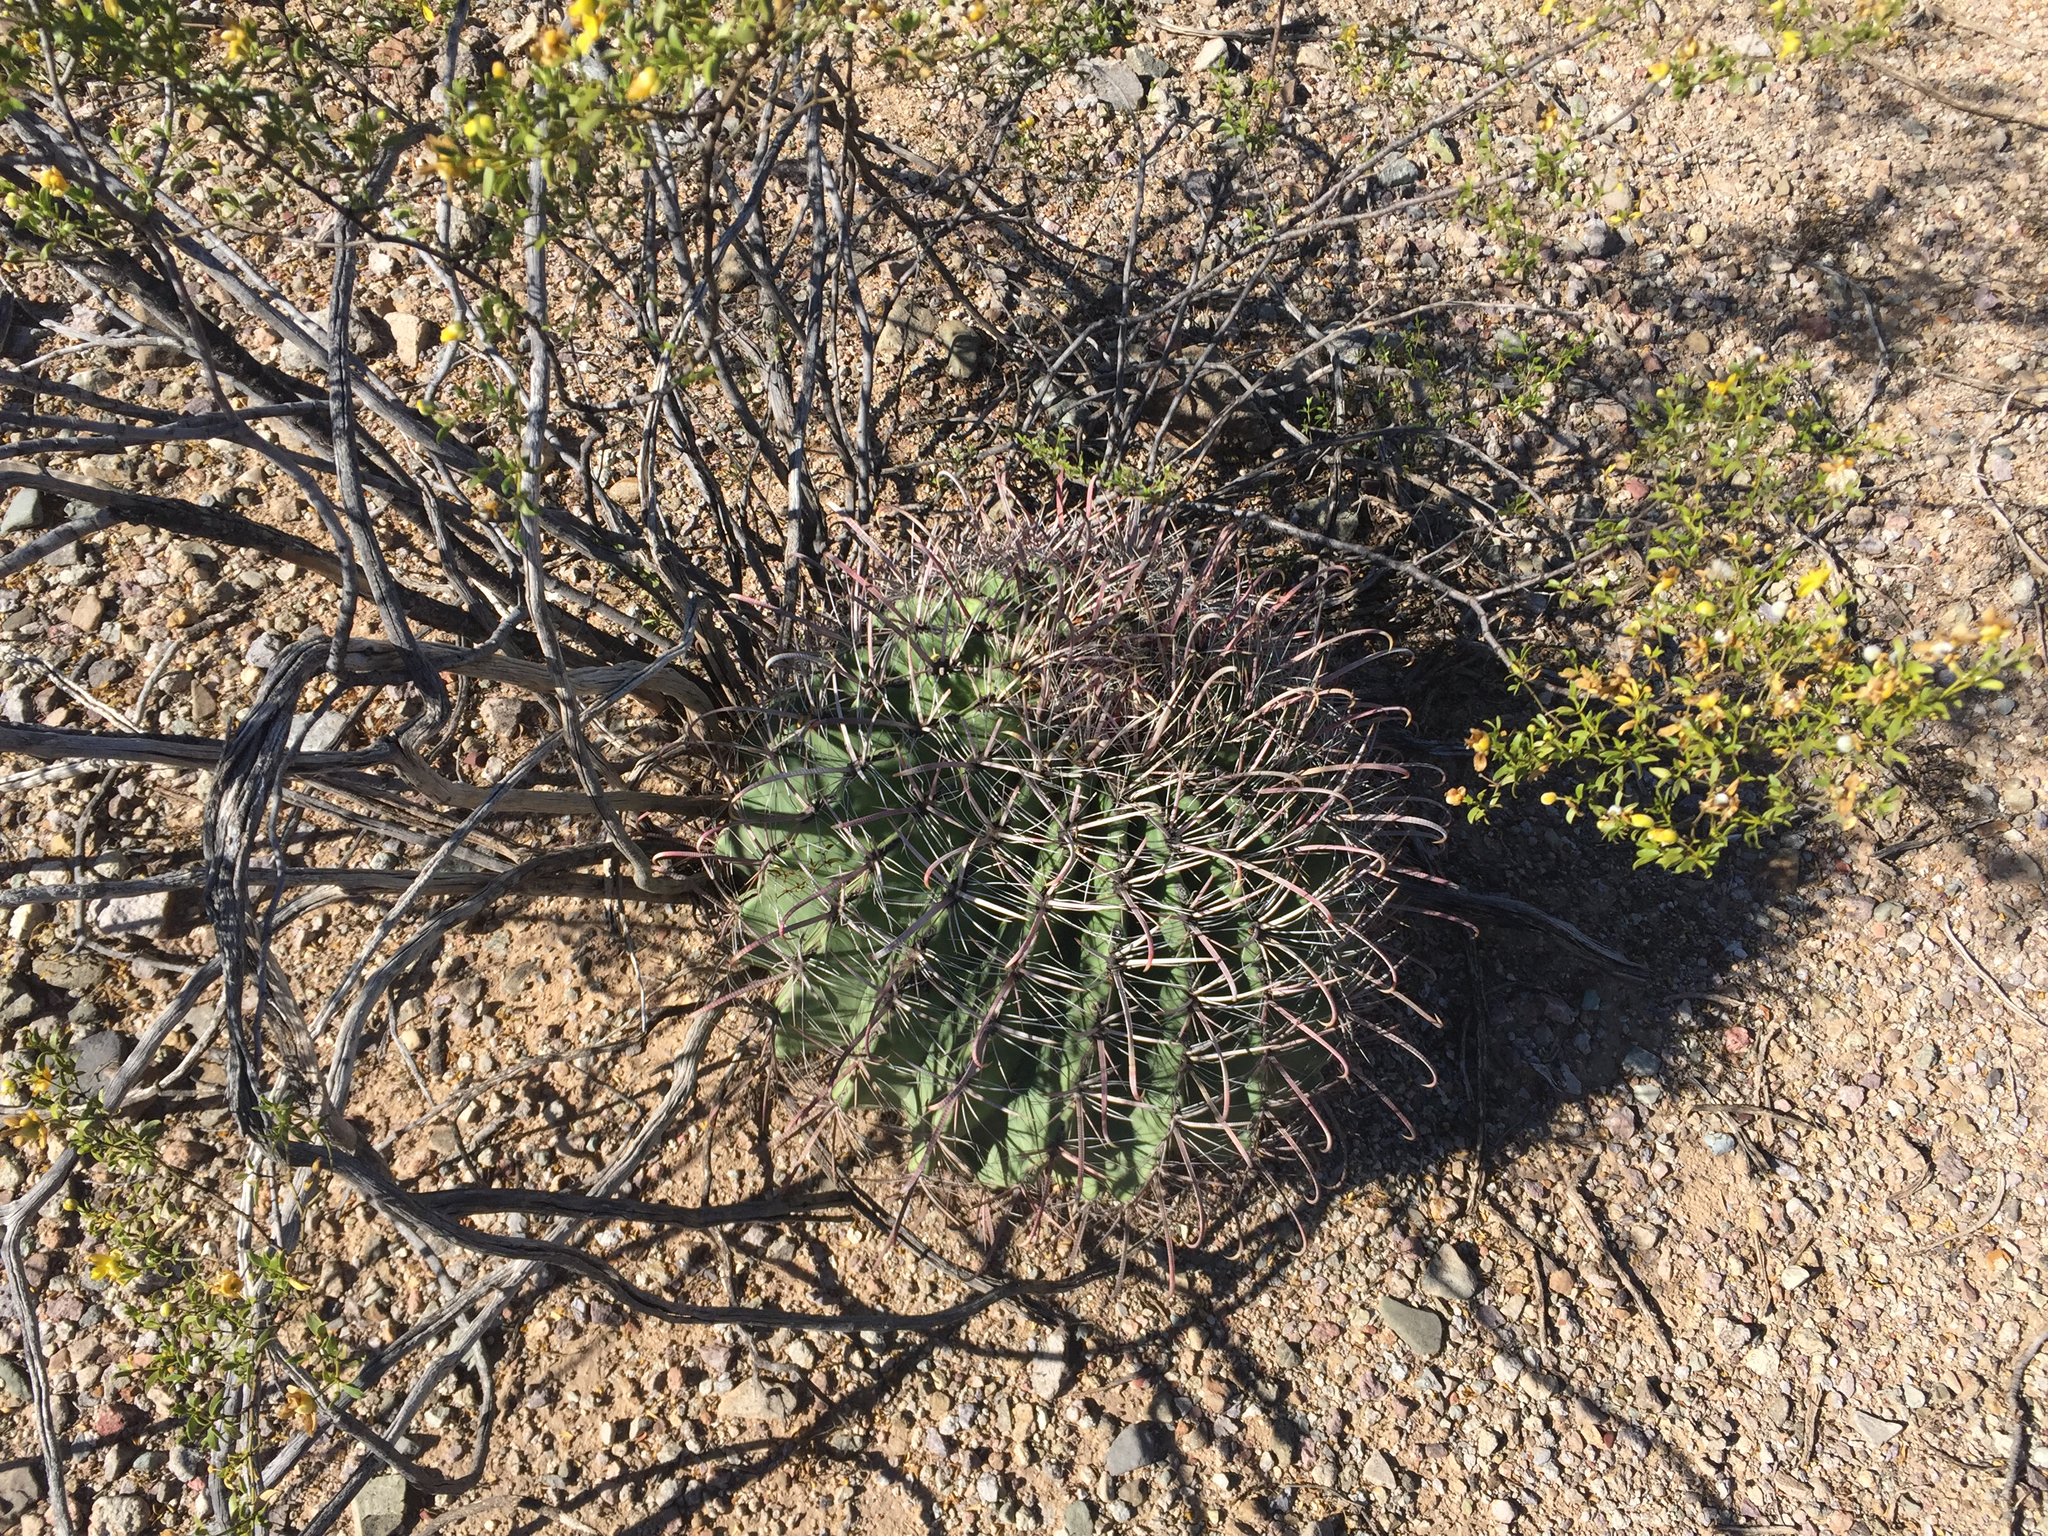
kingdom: Plantae
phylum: Tracheophyta
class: Magnoliopsida
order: Caryophyllales
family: Cactaceae
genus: Ferocactus
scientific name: Ferocactus wislizeni
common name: Candy barrel cactus
